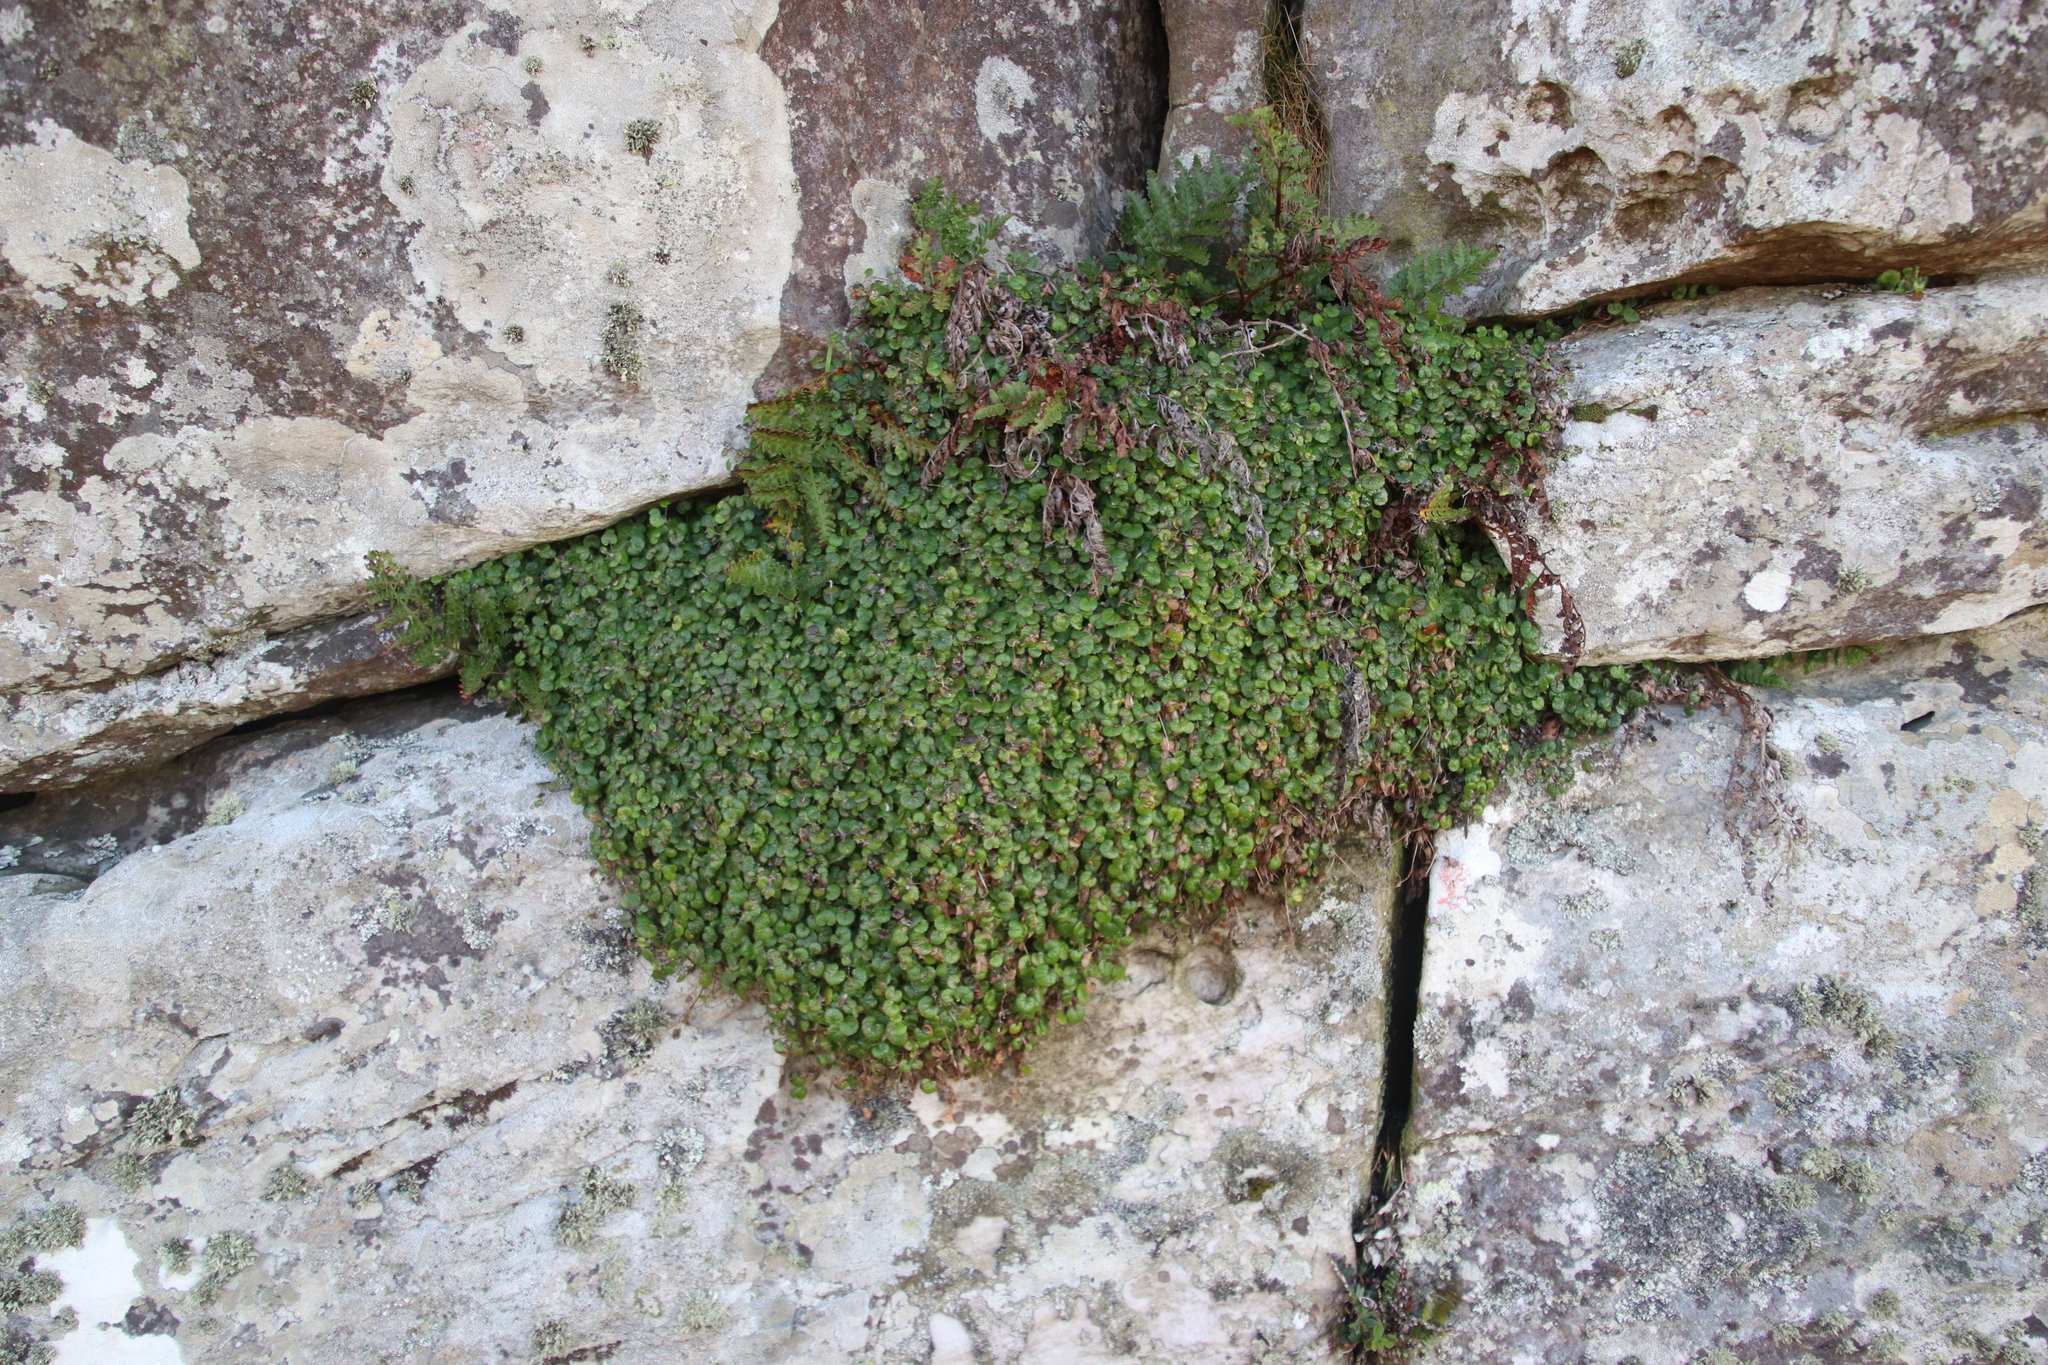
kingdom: Plantae
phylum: Tracheophyta
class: Magnoliopsida
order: Apiales
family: Apiaceae
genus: Centella
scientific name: Centella eriantha
